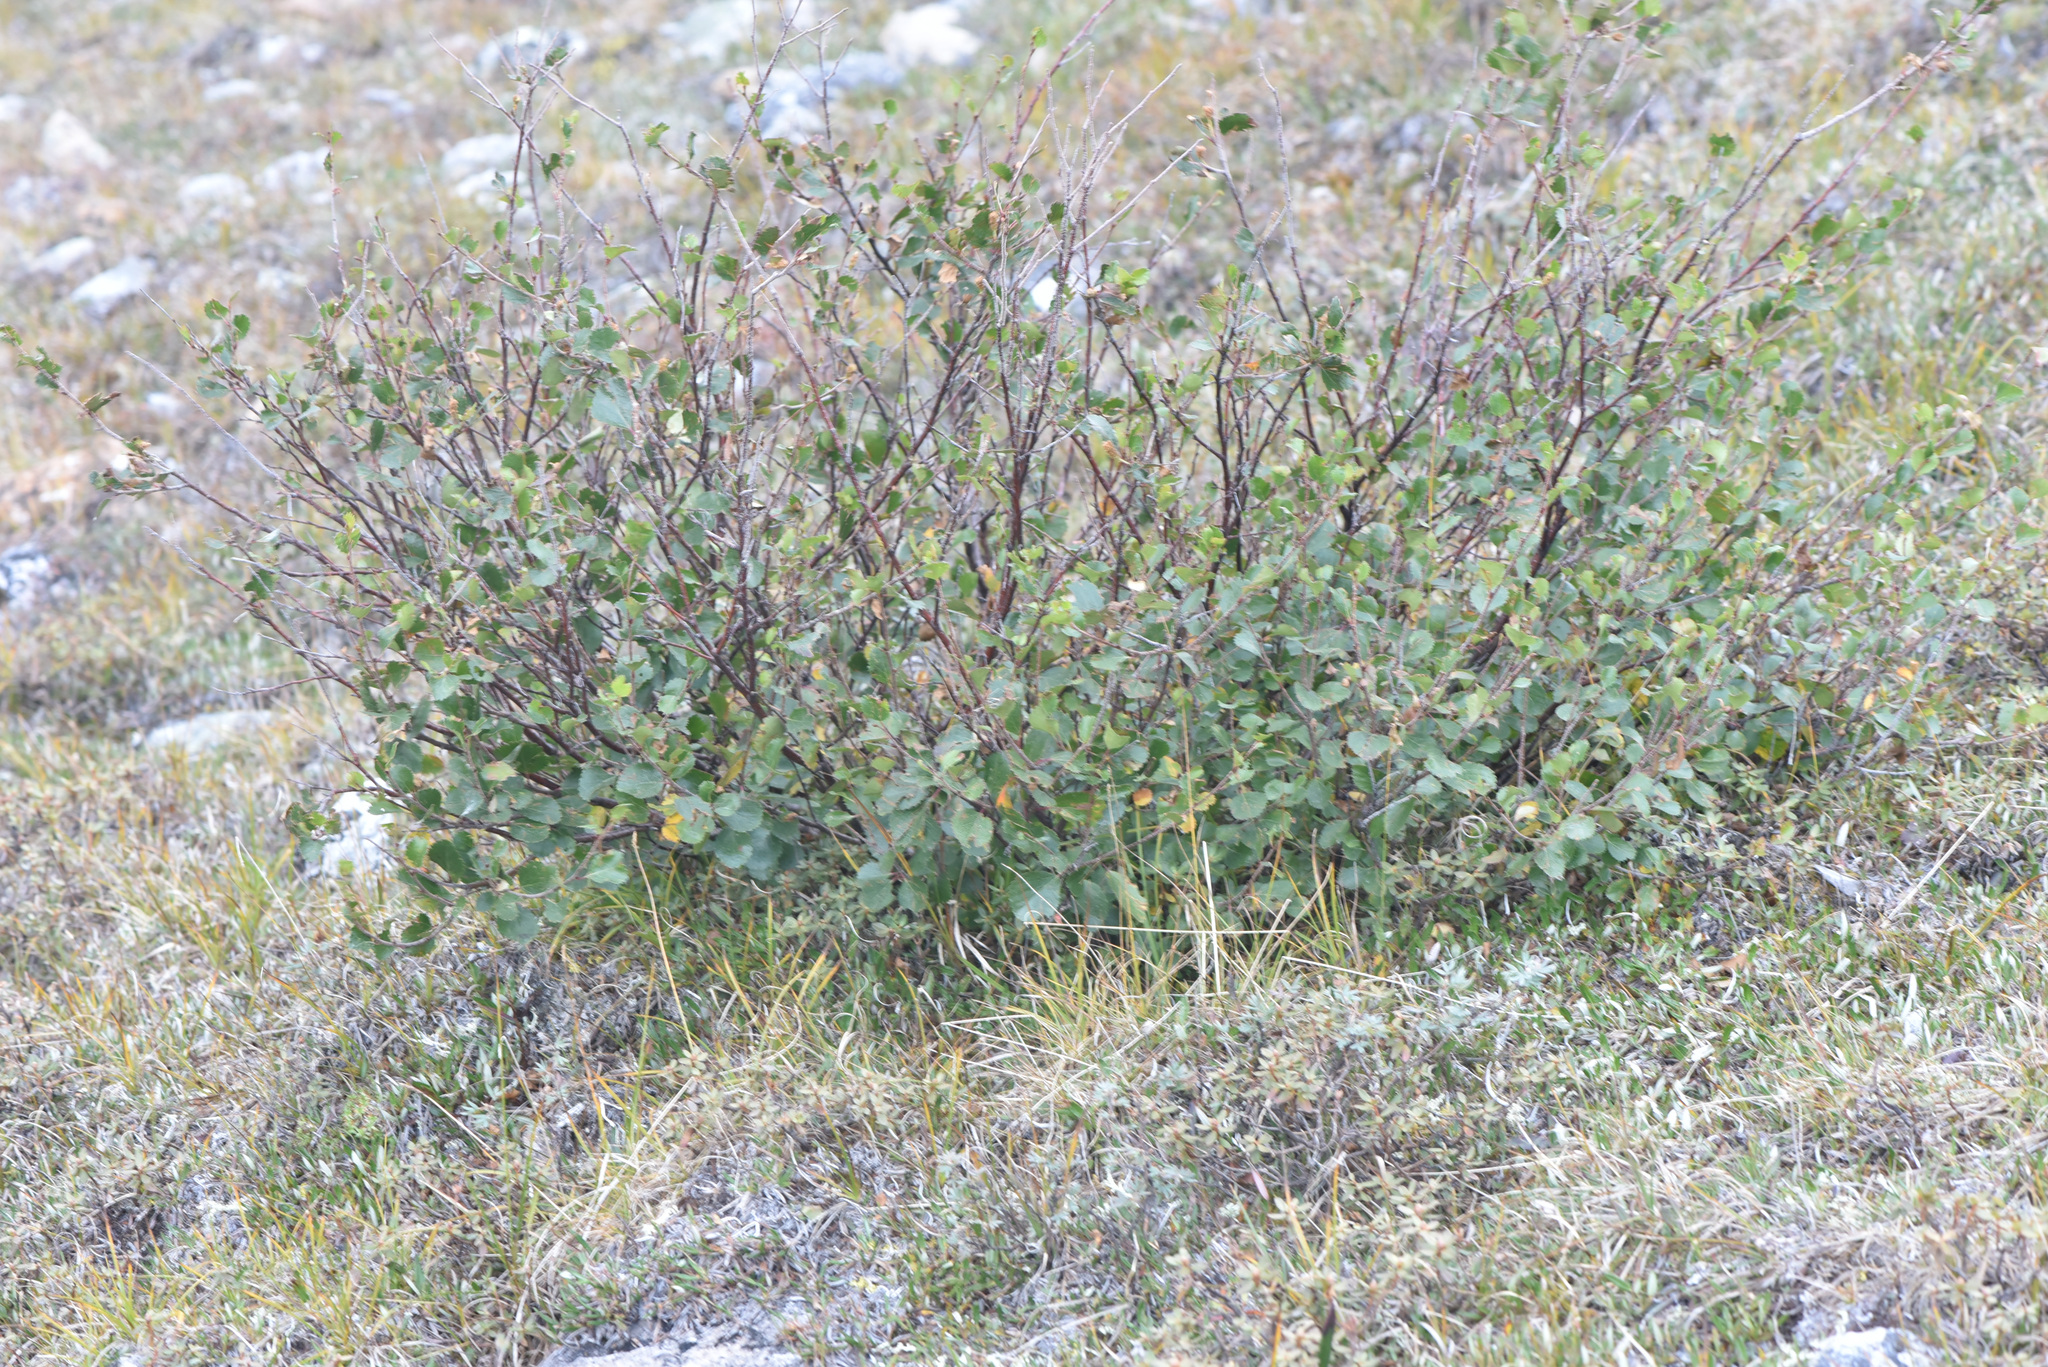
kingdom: Plantae
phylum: Tracheophyta
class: Magnoliopsida
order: Fagales
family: Betulaceae
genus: Betula
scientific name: Betula glandulosa
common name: Dwarf birch
